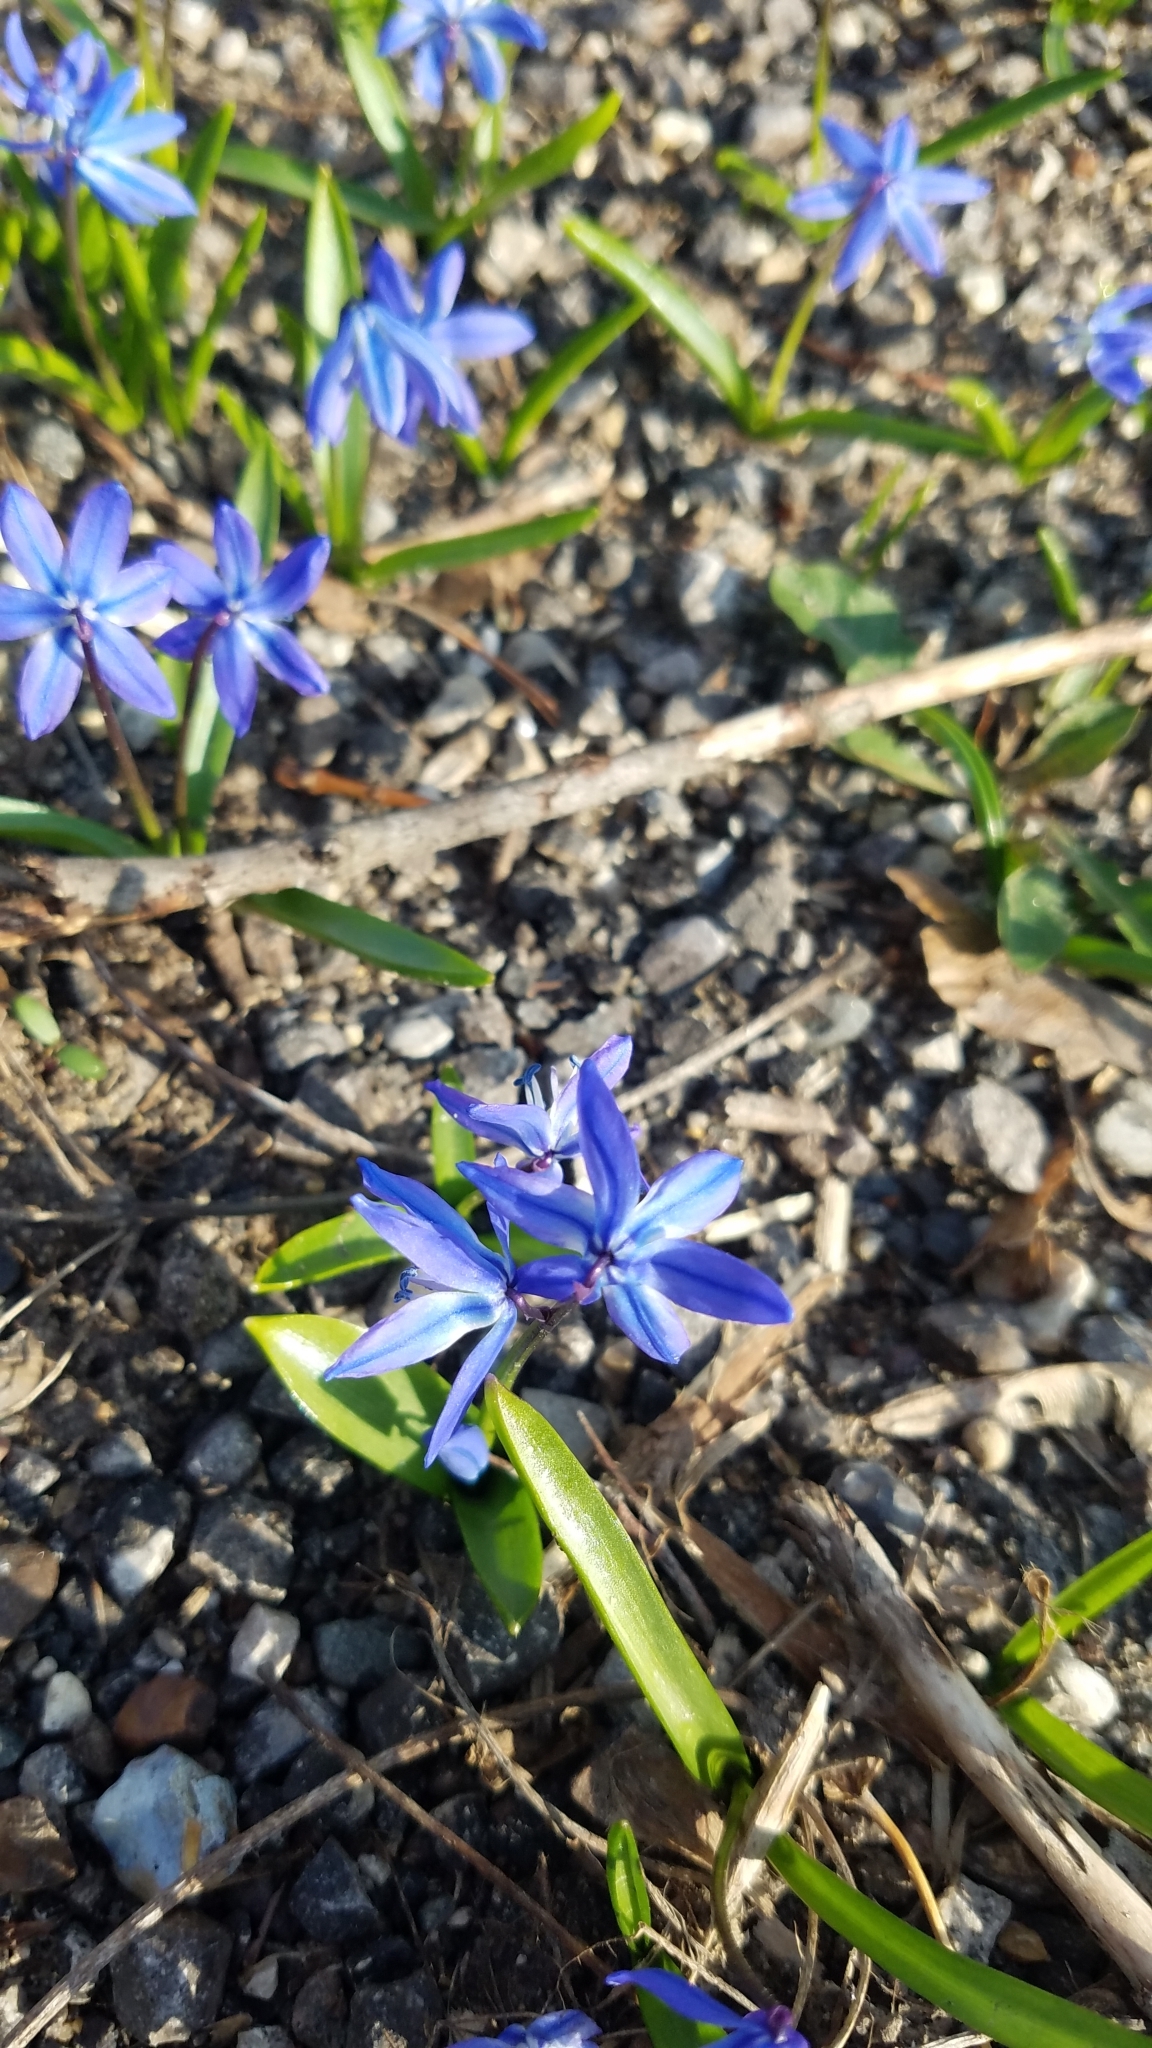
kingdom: Plantae
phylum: Tracheophyta
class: Liliopsida
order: Asparagales
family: Asparagaceae
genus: Scilla
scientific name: Scilla siberica
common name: Siberian squill
